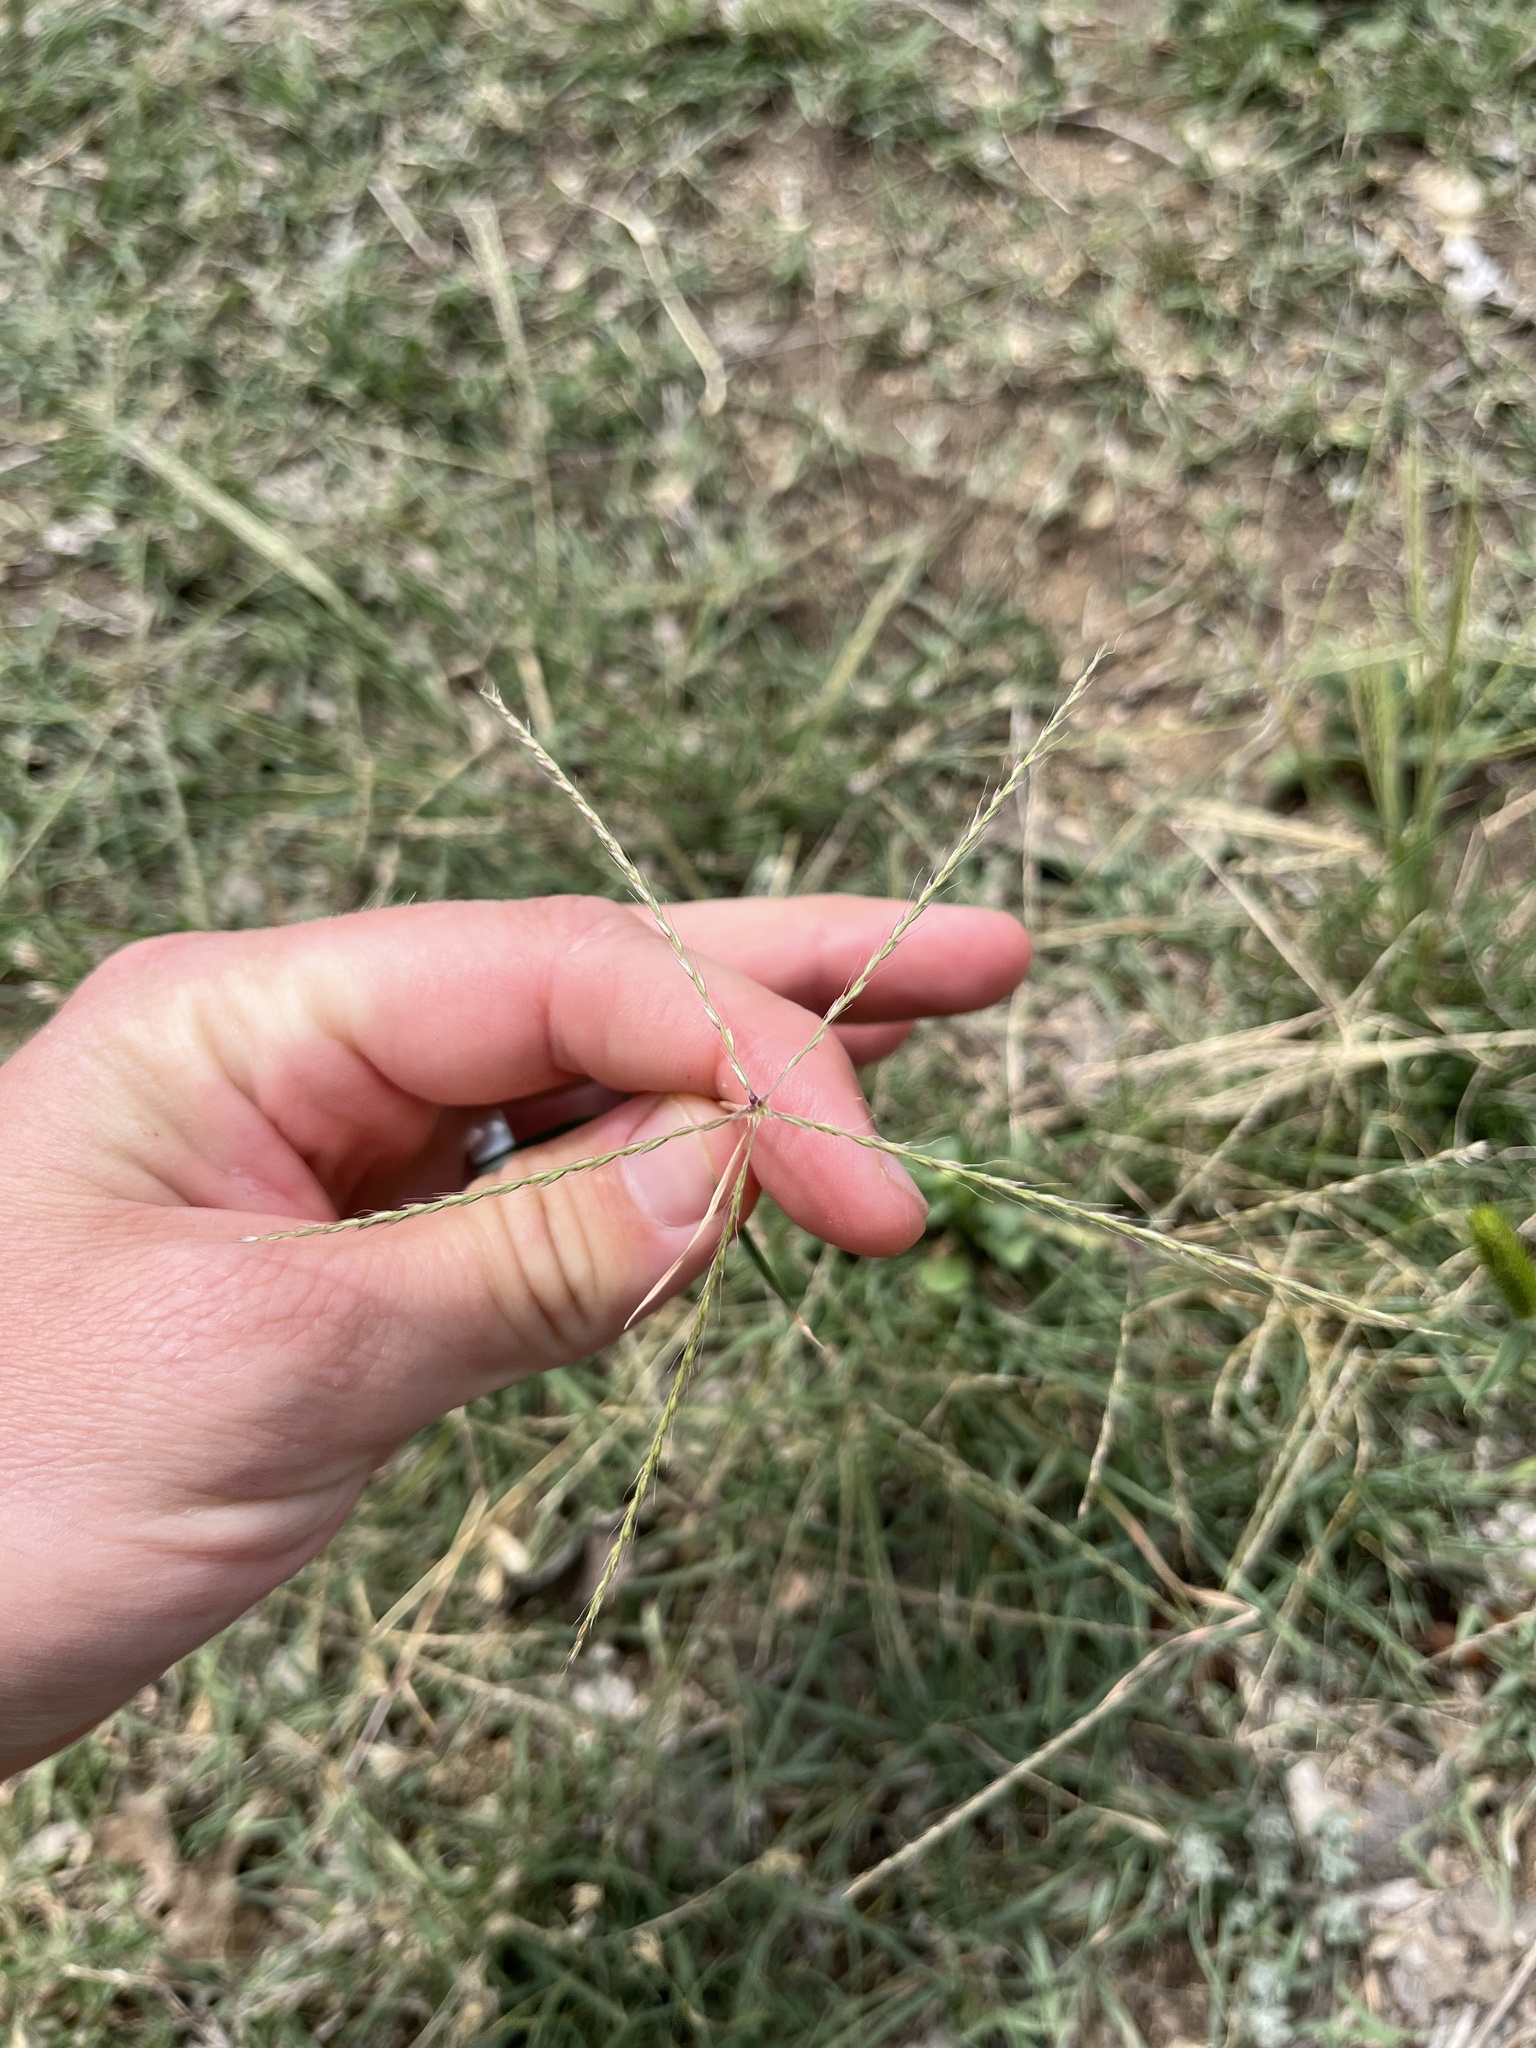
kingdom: Plantae
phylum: Tracheophyta
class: Liliopsida
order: Poales
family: Poaceae
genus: Chloris
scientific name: Chloris andropogonoides
